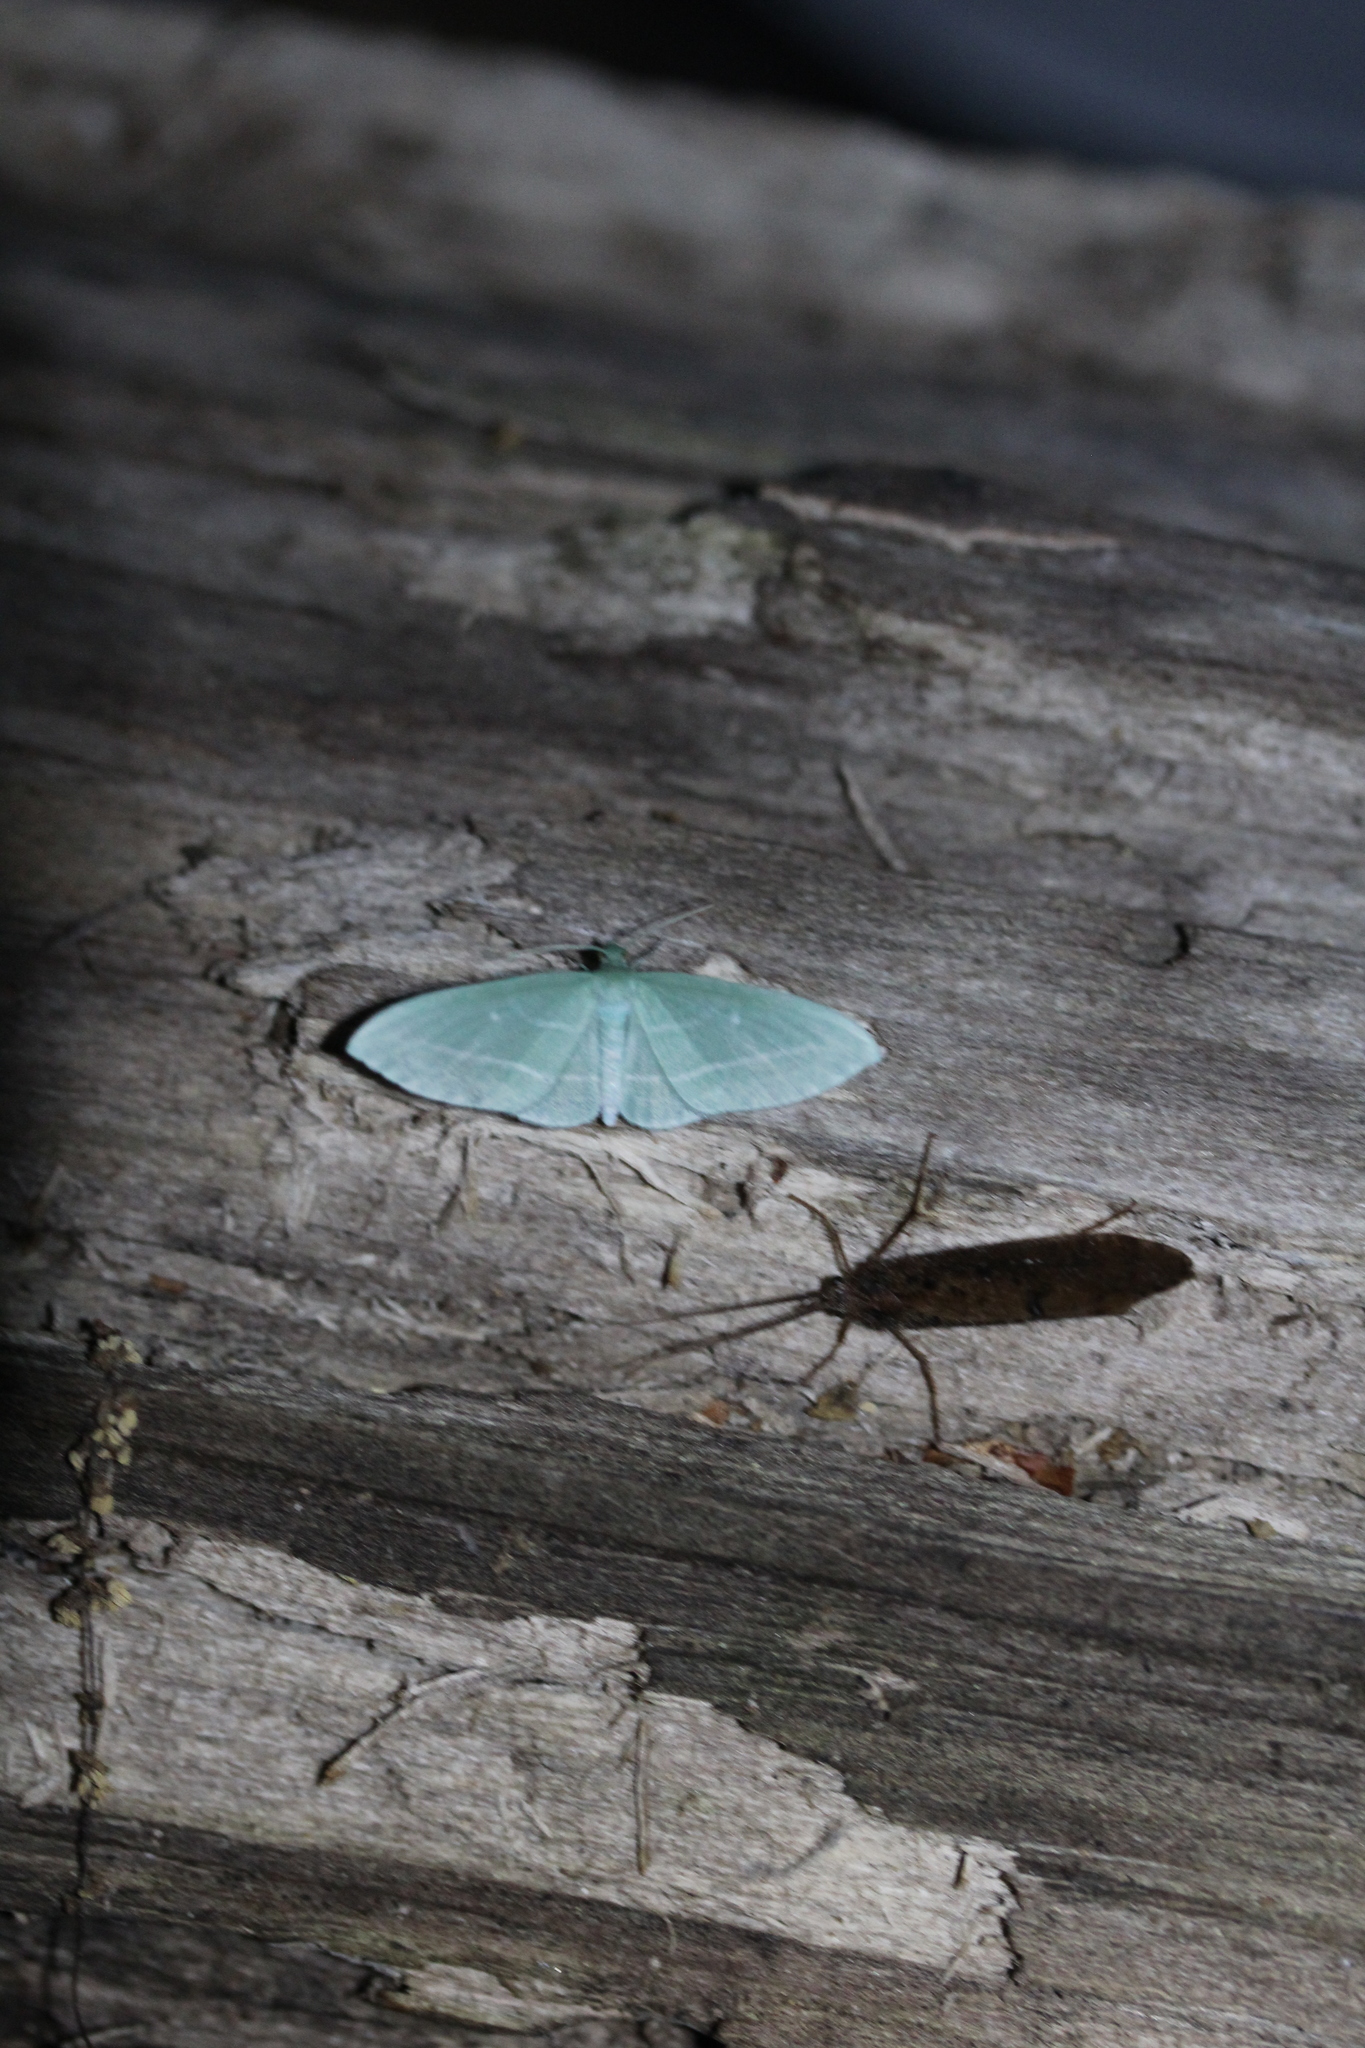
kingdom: Animalia
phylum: Arthropoda
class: Insecta
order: Lepidoptera
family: Geometridae
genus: Dyspteris
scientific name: Dyspteris abortivaria
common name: Bad-wing
